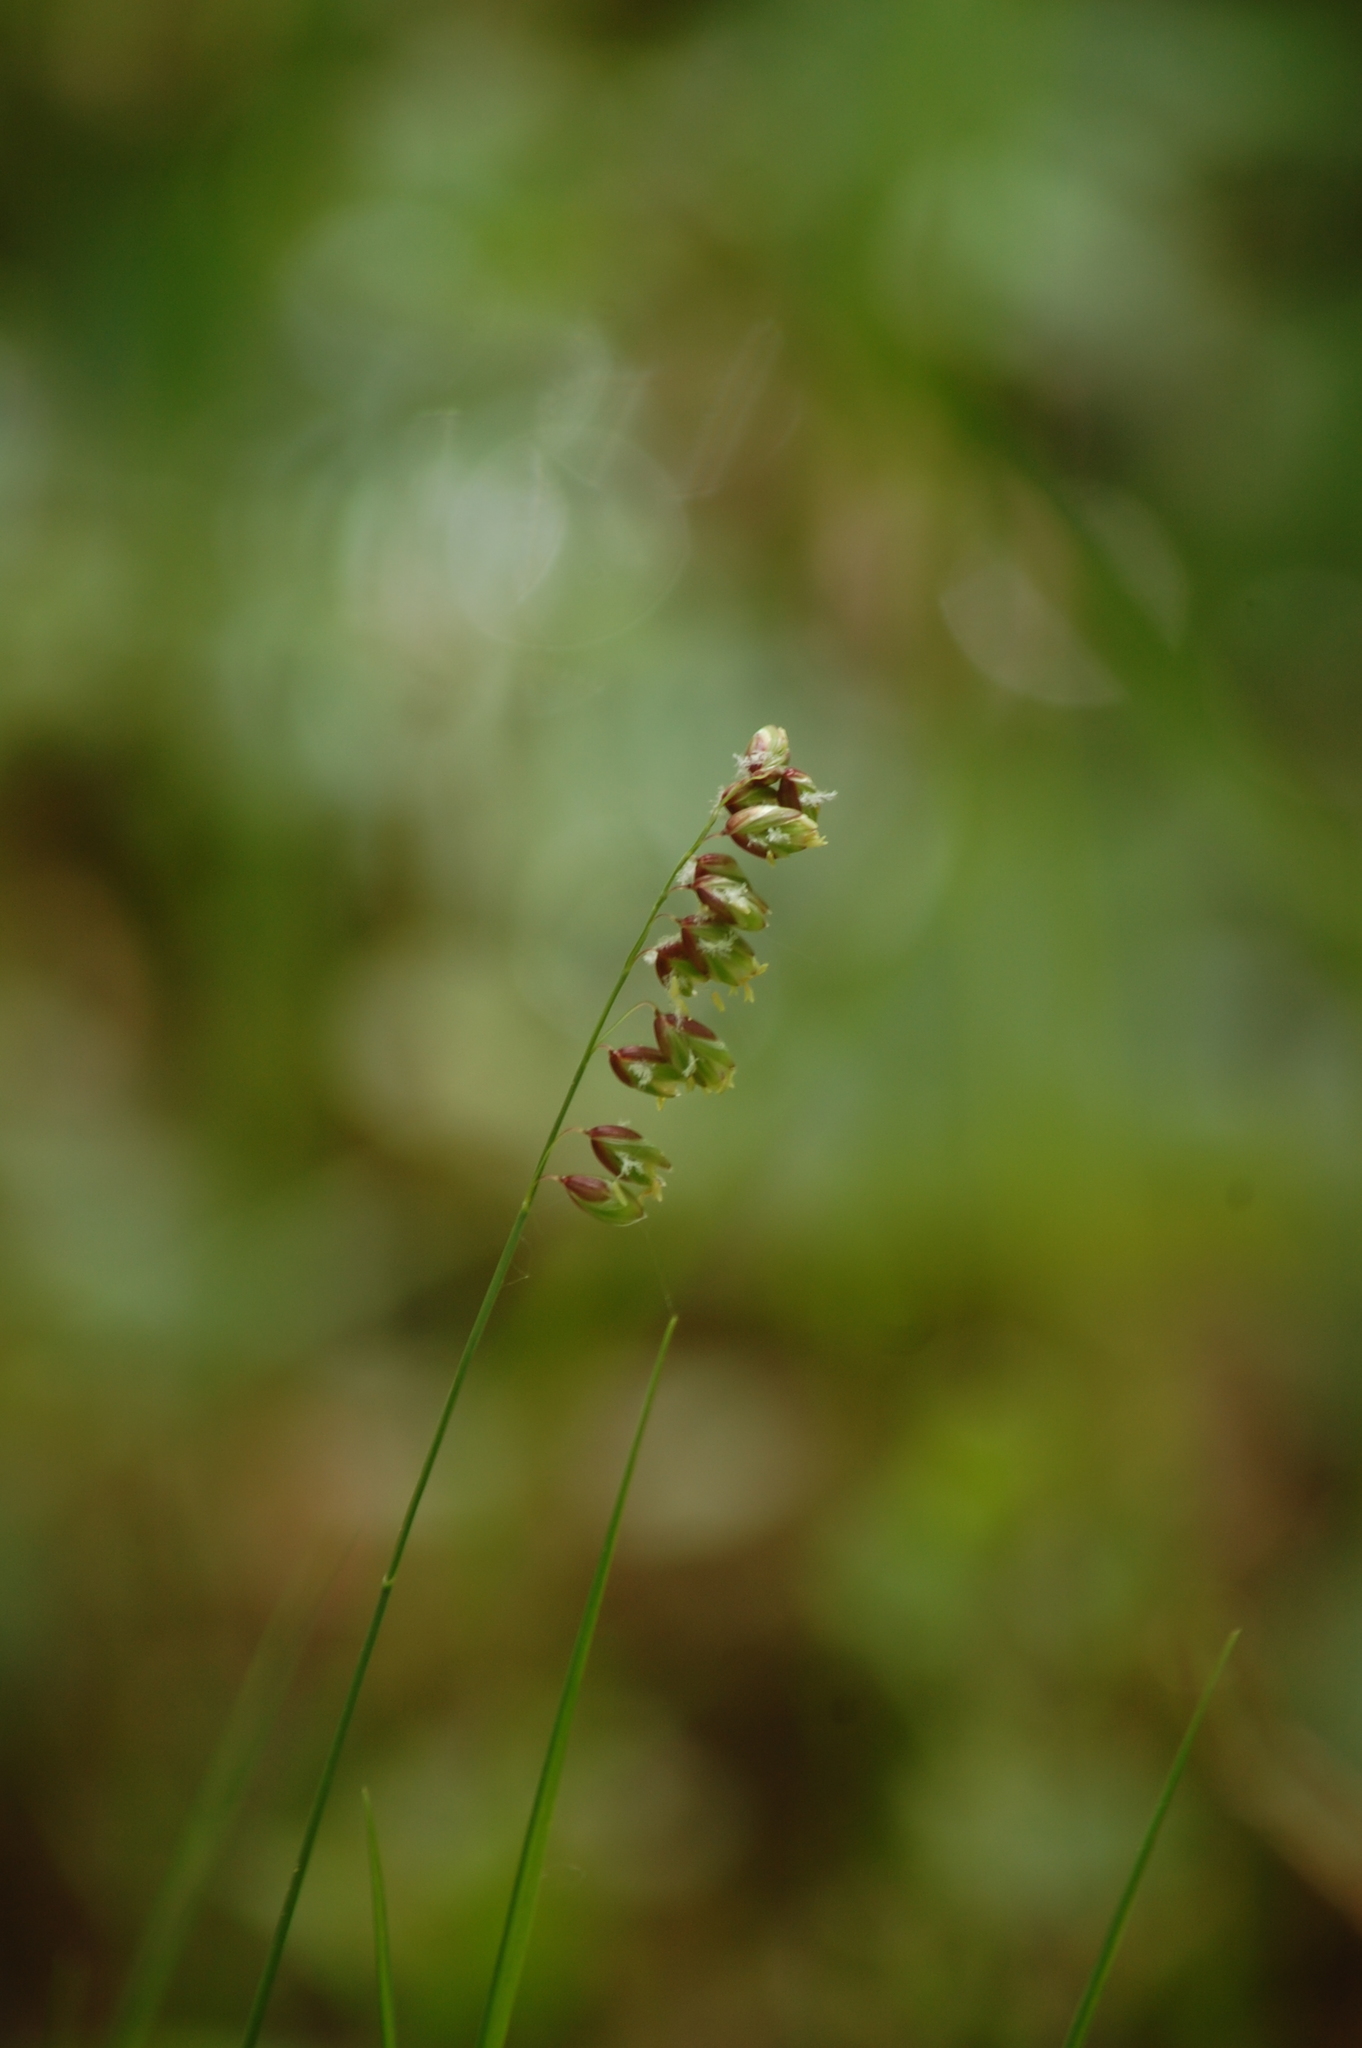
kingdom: Plantae
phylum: Tracheophyta
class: Liliopsida
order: Poales
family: Poaceae
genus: Melica
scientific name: Melica nutans
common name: Mountain melick
